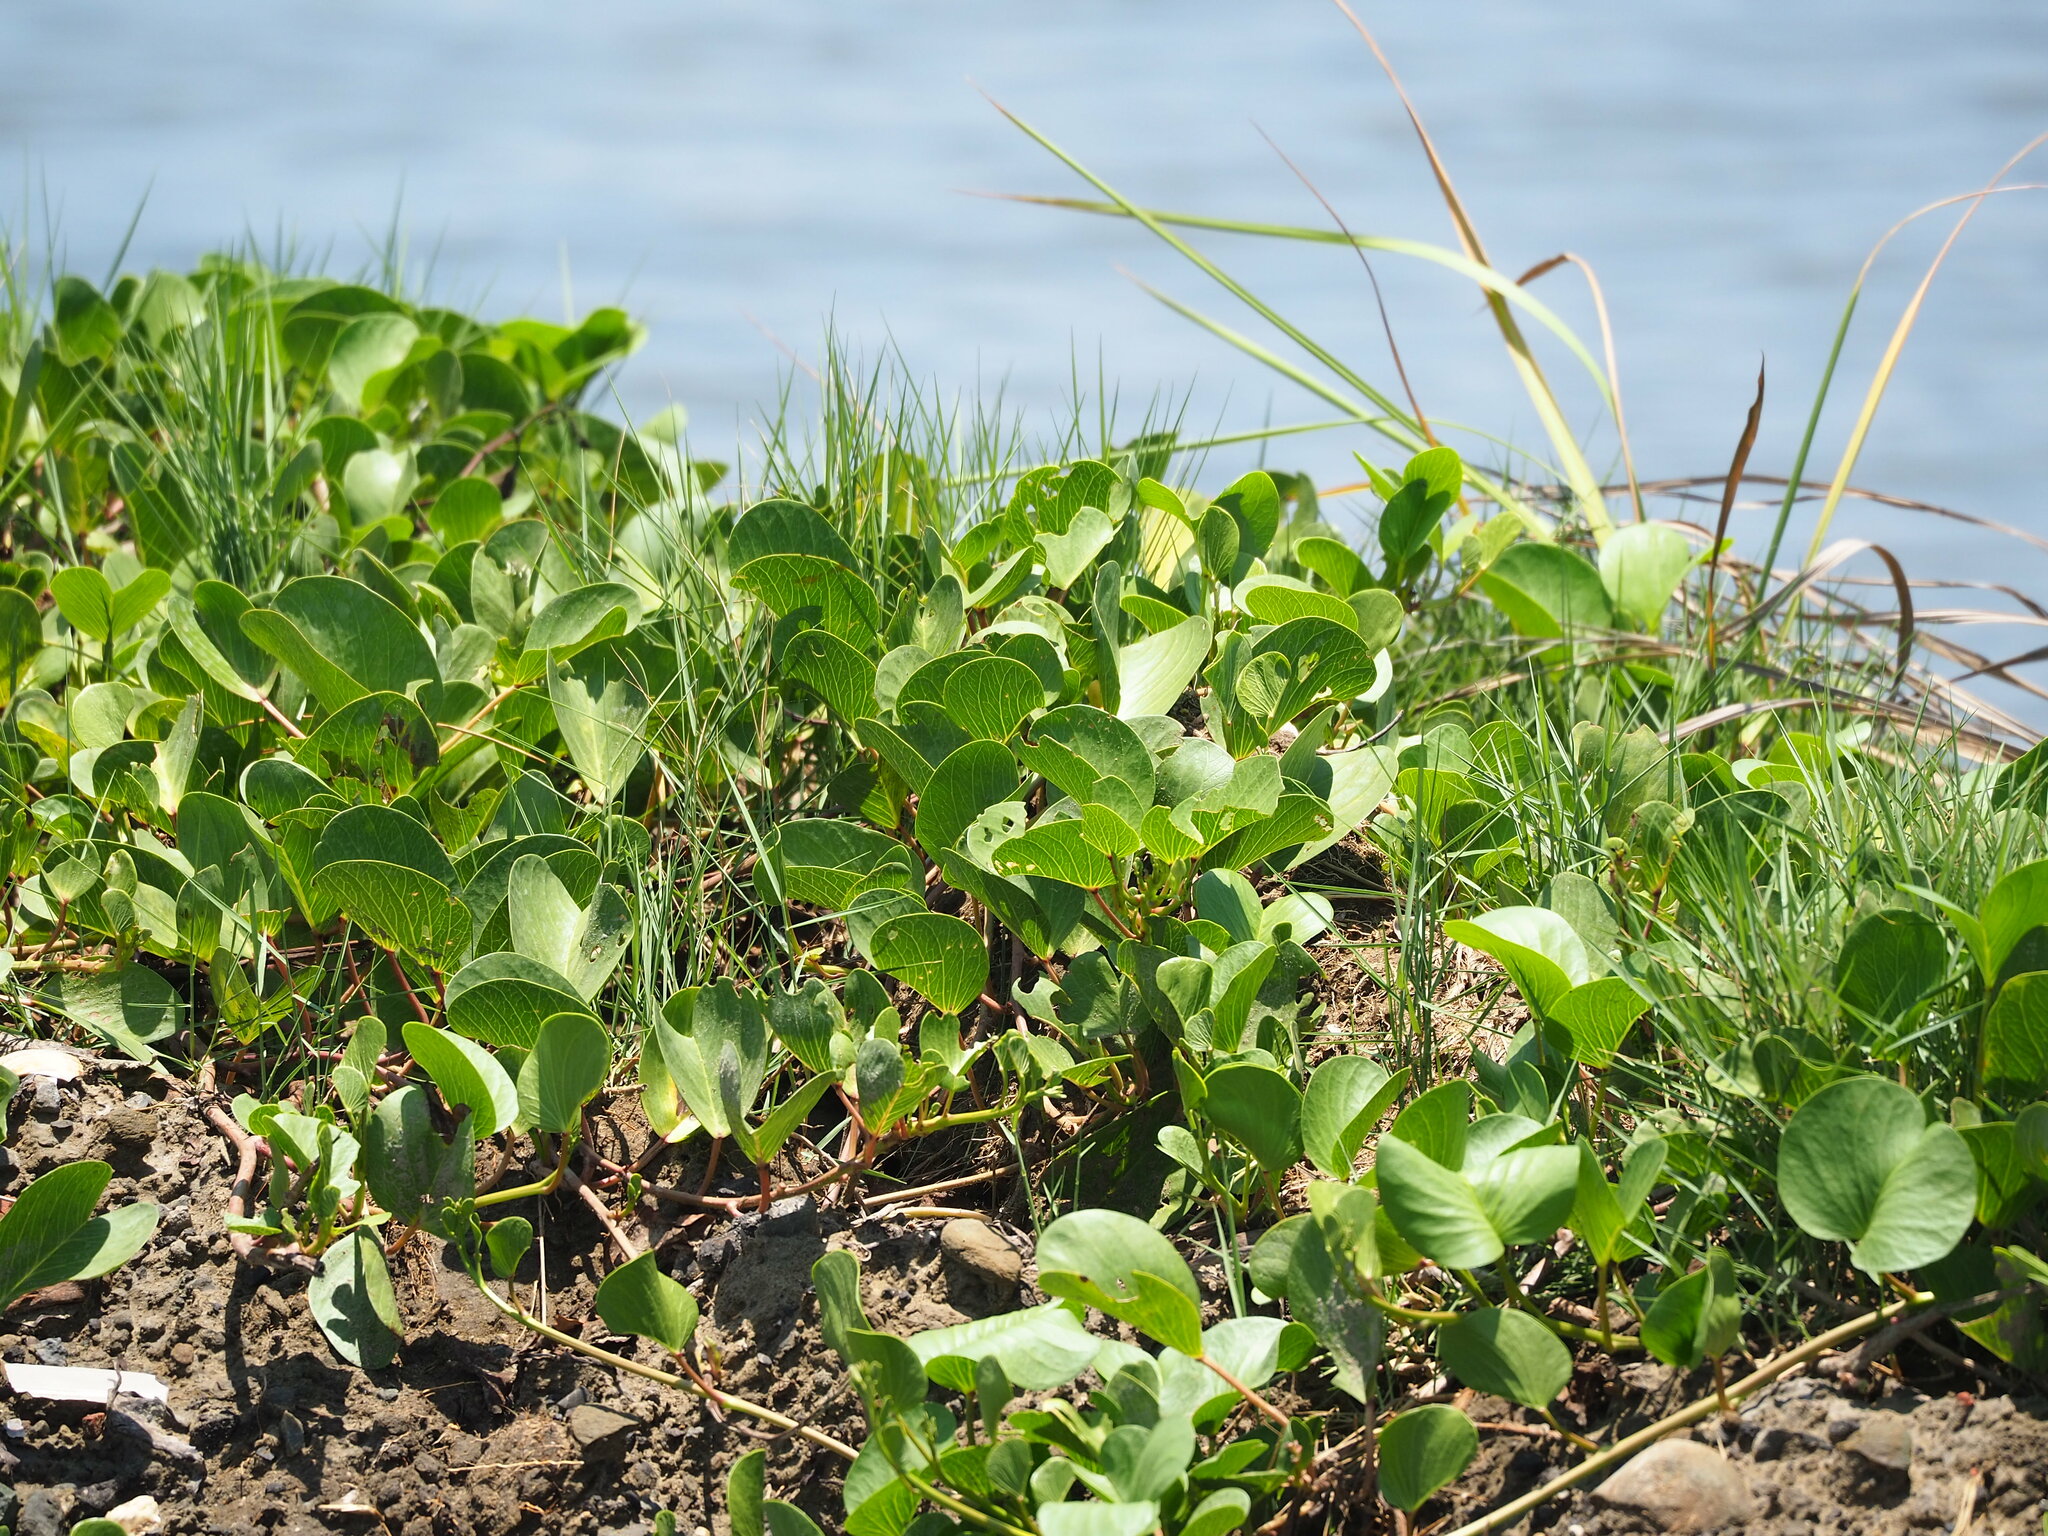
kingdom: Plantae
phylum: Tracheophyta
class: Magnoliopsida
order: Solanales
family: Convolvulaceae
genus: Ipomoea
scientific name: Ipomoea pes-caprae
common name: Beach morning glory
